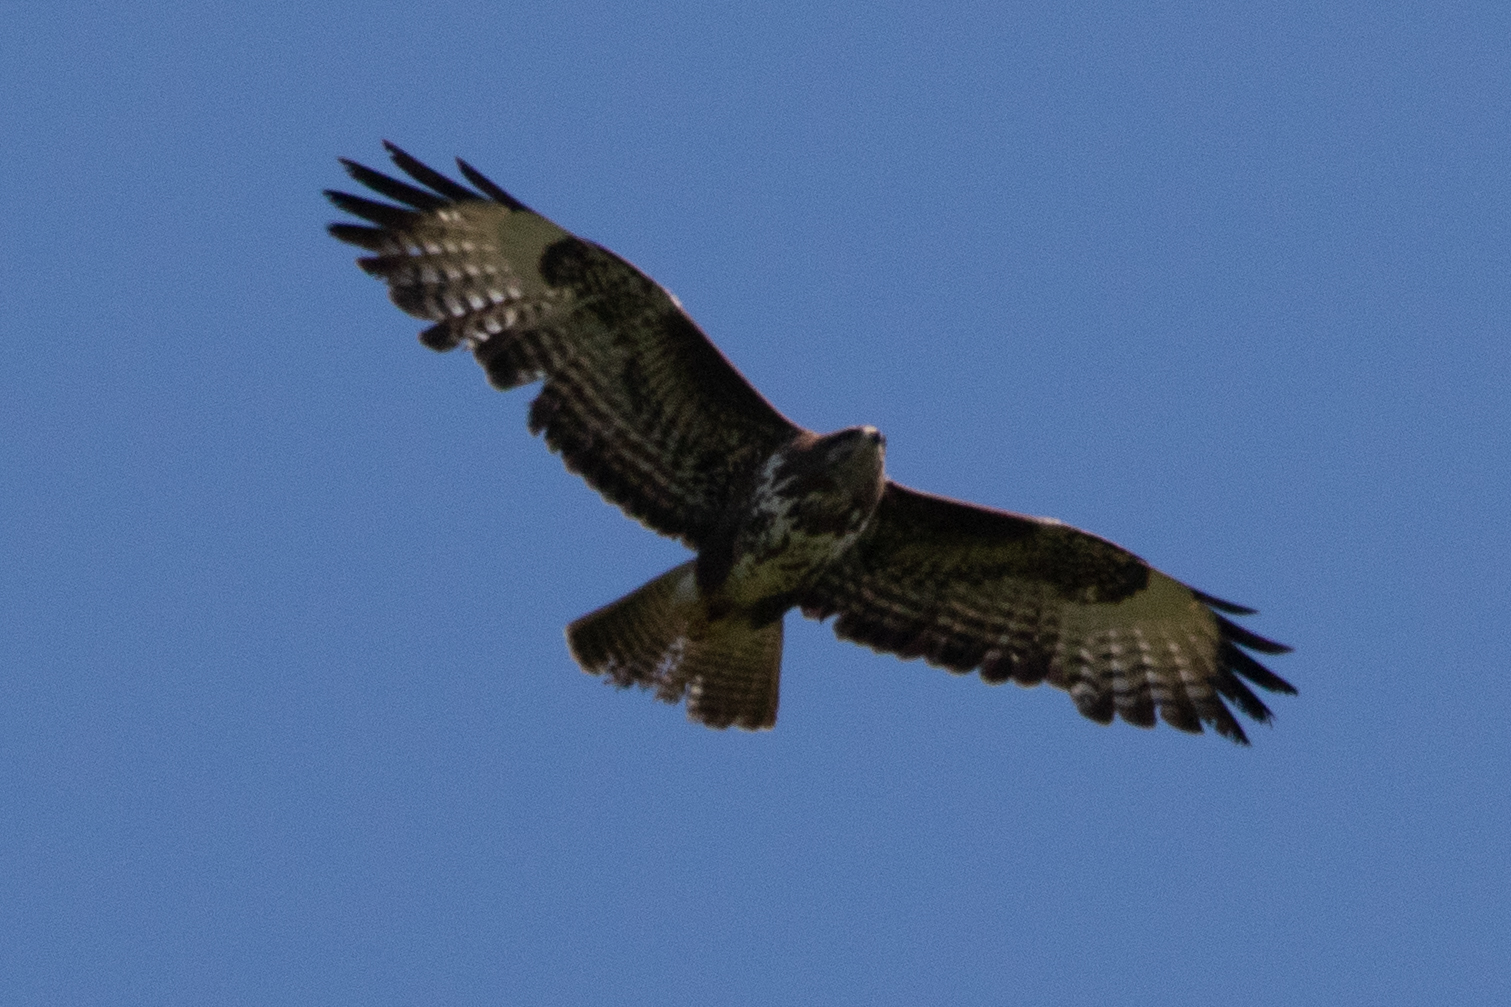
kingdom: Animalia
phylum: Chordata
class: Aves
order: Accipitriformes
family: Accipitridae
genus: Buteo
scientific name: Buteo buteo
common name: Common buzzard
